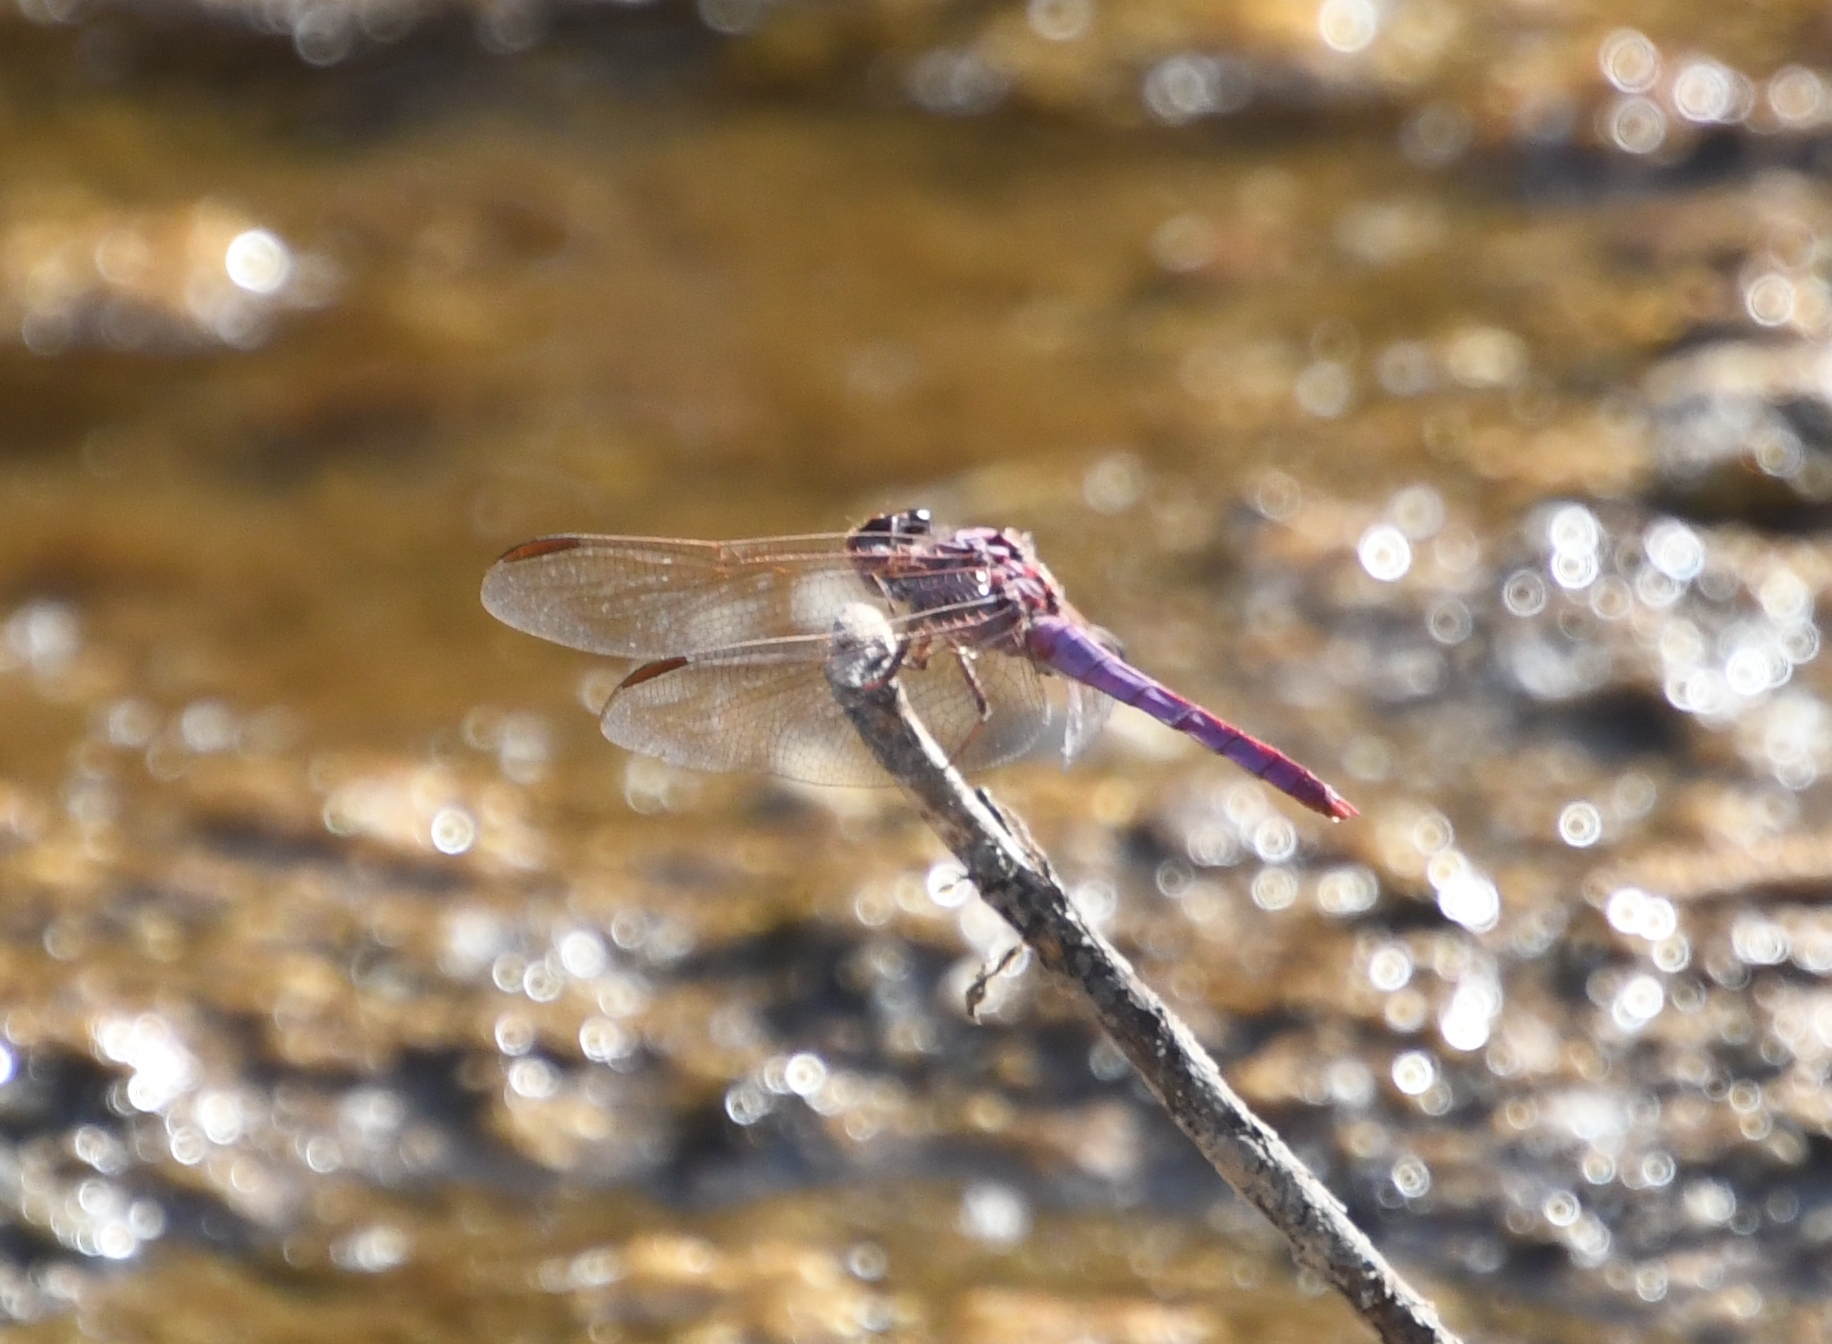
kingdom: Animalia
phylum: Arthropoda
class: Insecta
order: Odonata
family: Libellulidae
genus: Orthemis
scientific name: Orthemis ferruginea
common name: Roseate skimmer
